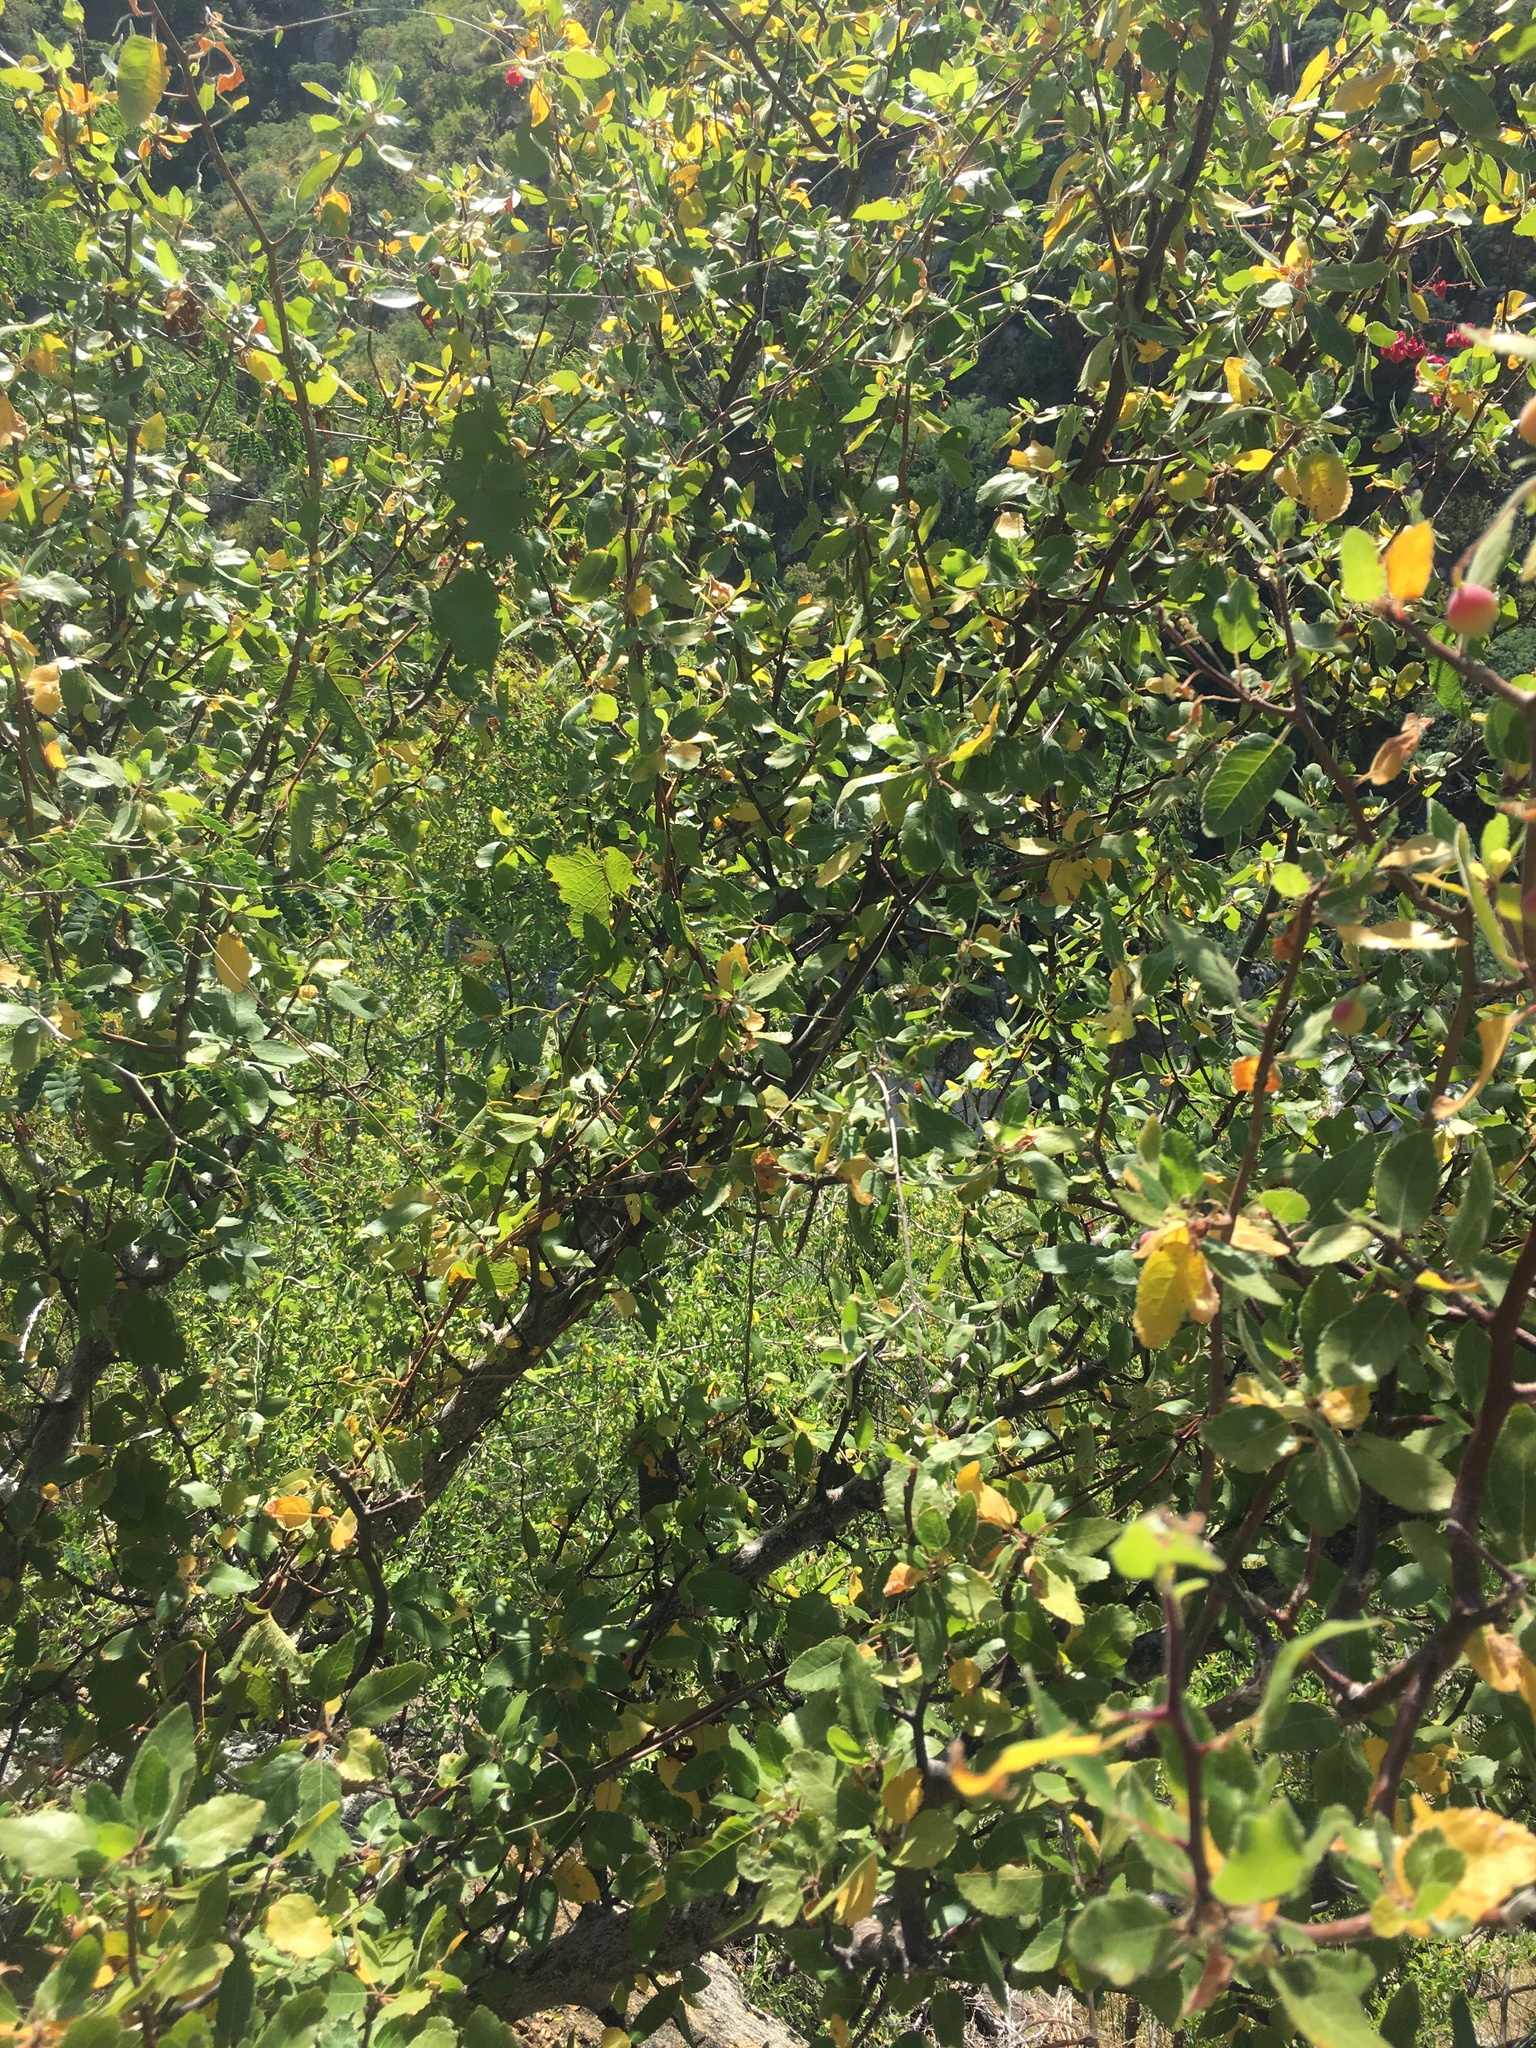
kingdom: Plantae
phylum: Tracheophyta
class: Magnoliopsida
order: Sapindales
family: Burseraceae
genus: Bursera
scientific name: Bursera epinnata
